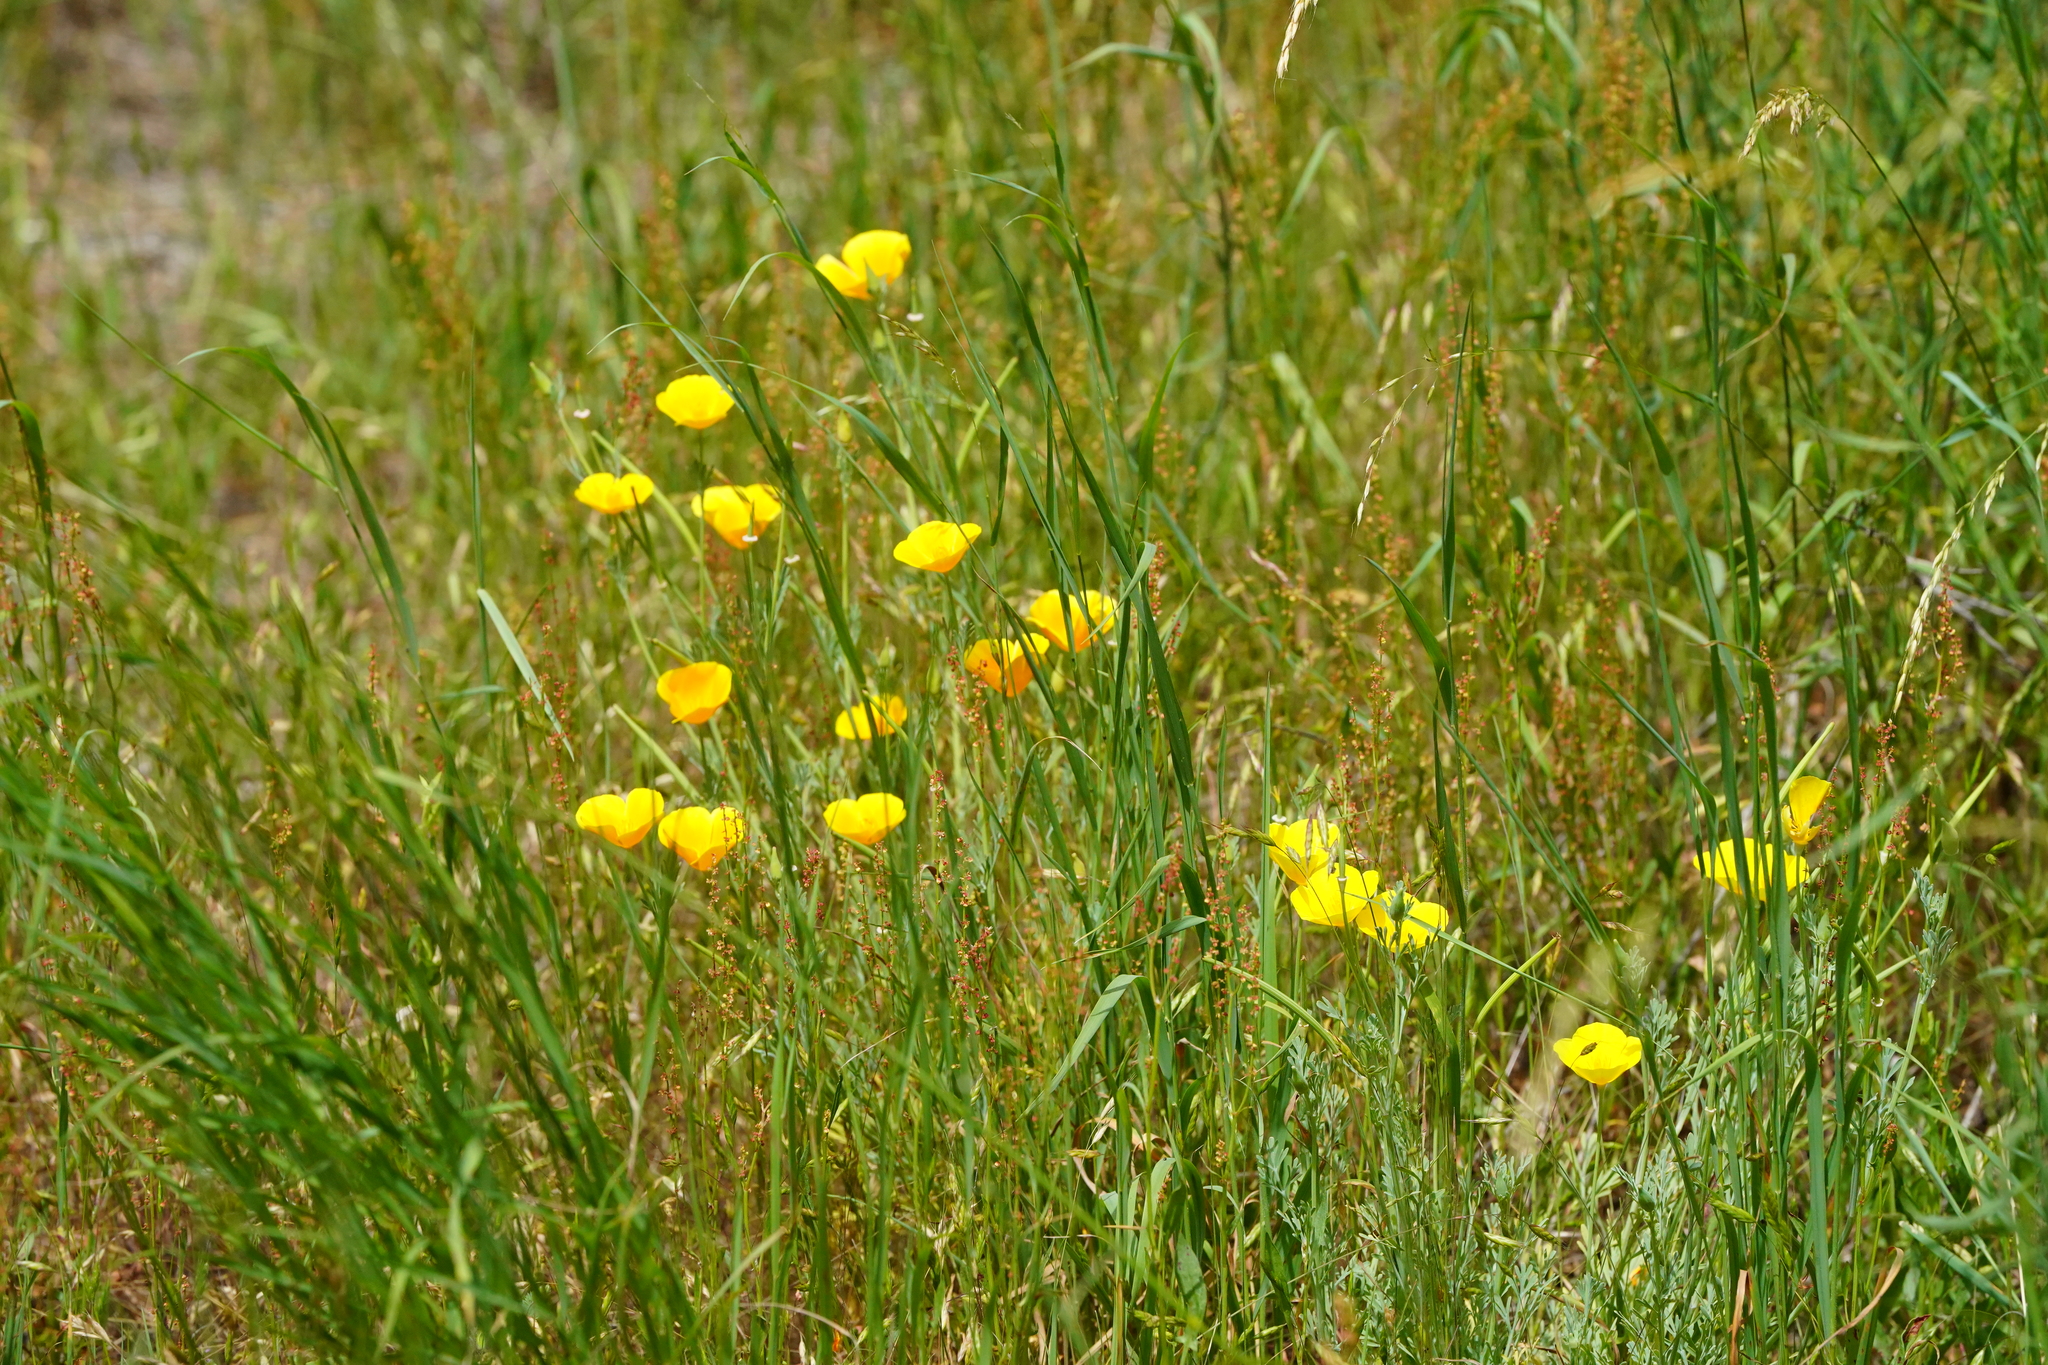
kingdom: Plantae
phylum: Tracheophyta
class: Magnoliopsida
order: Ranunculales
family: Papaveraceae
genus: Eschscholzia
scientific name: Eschscholzia californica
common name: California poppy
